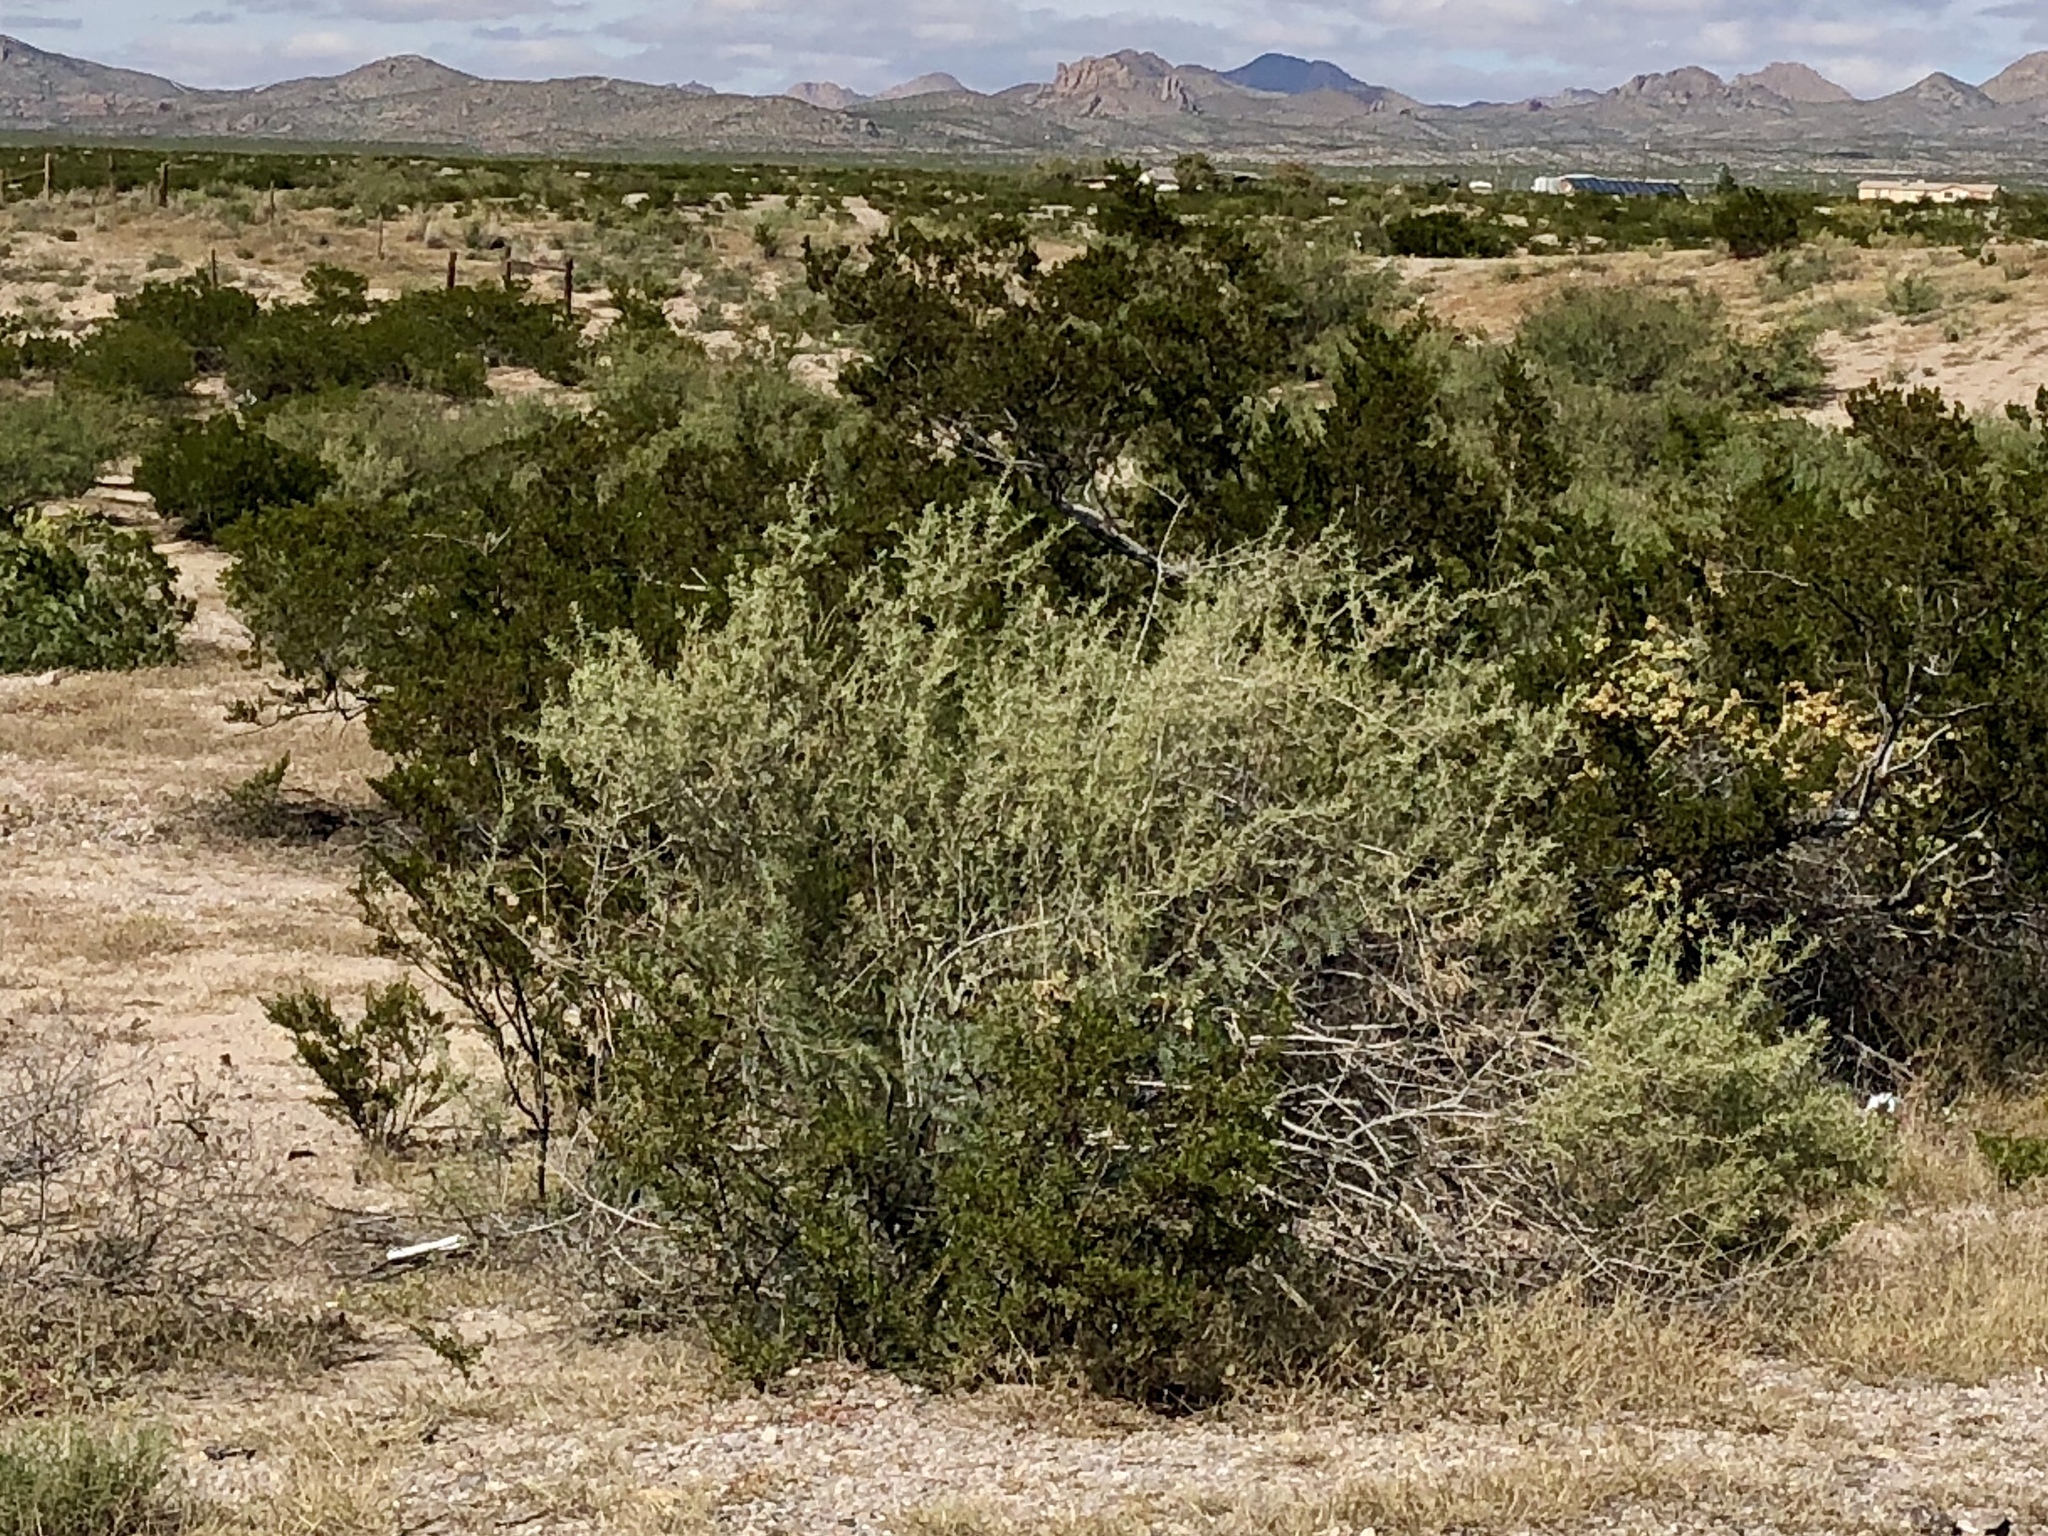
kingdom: Plantae
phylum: Tracheophyta
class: Magnoliopsida
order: Caryophyllales
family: Amaranthaceae
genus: Atriplex
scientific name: Atriplex canescens
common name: Four-wing saltbush
